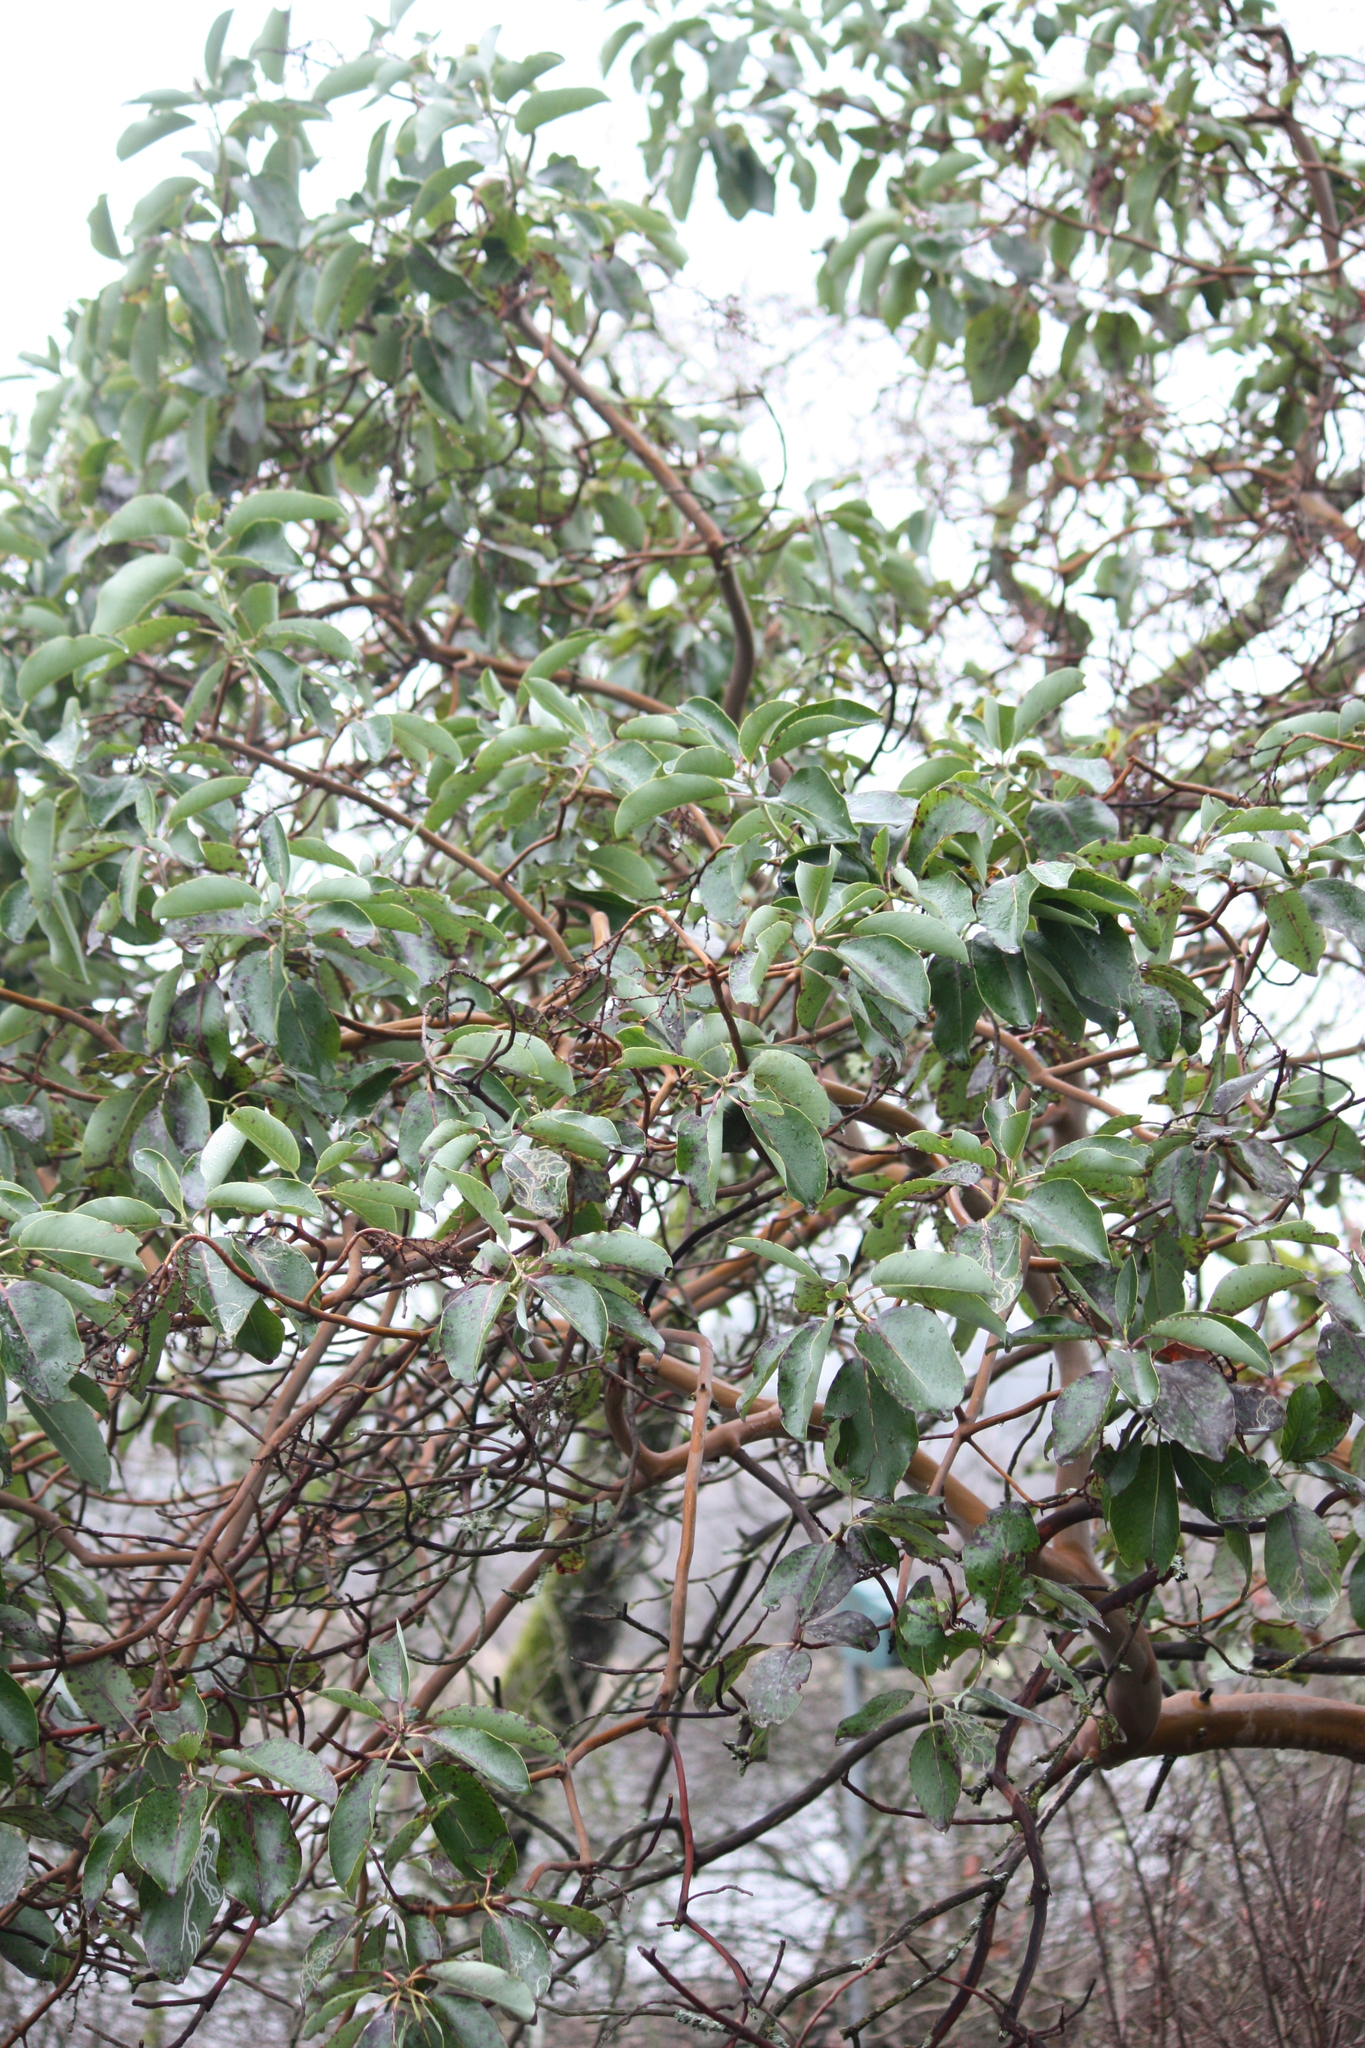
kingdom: Plantae
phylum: Tracheophyta
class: Magnoliopsida
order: Ericales
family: Ericaceae
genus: Arbutus
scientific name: Arbutus menziesii
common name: Pacific madrone
